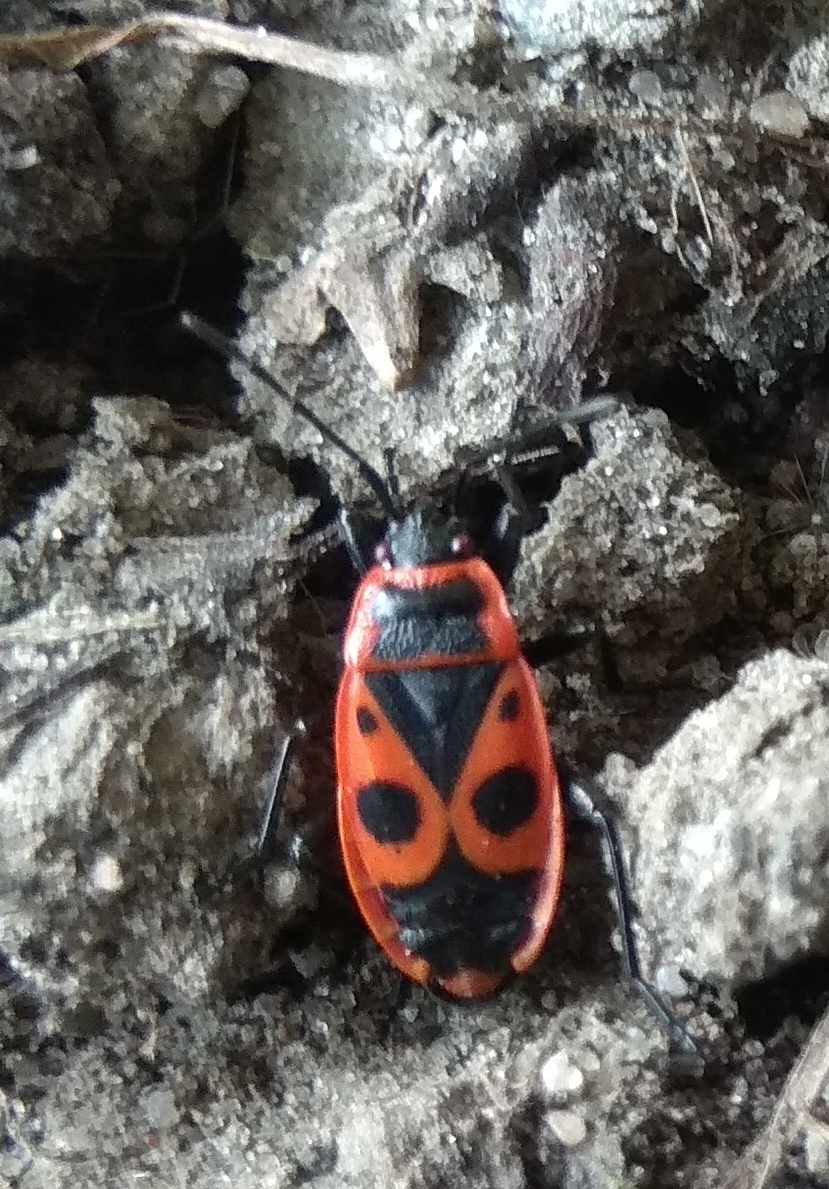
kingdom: Animalia
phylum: Arthropoda
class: Insecta
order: Hemiptera
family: Pyrrhocoridae
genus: Pyrrhocoris
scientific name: Pyrrhocoris apterus
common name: Firebug
